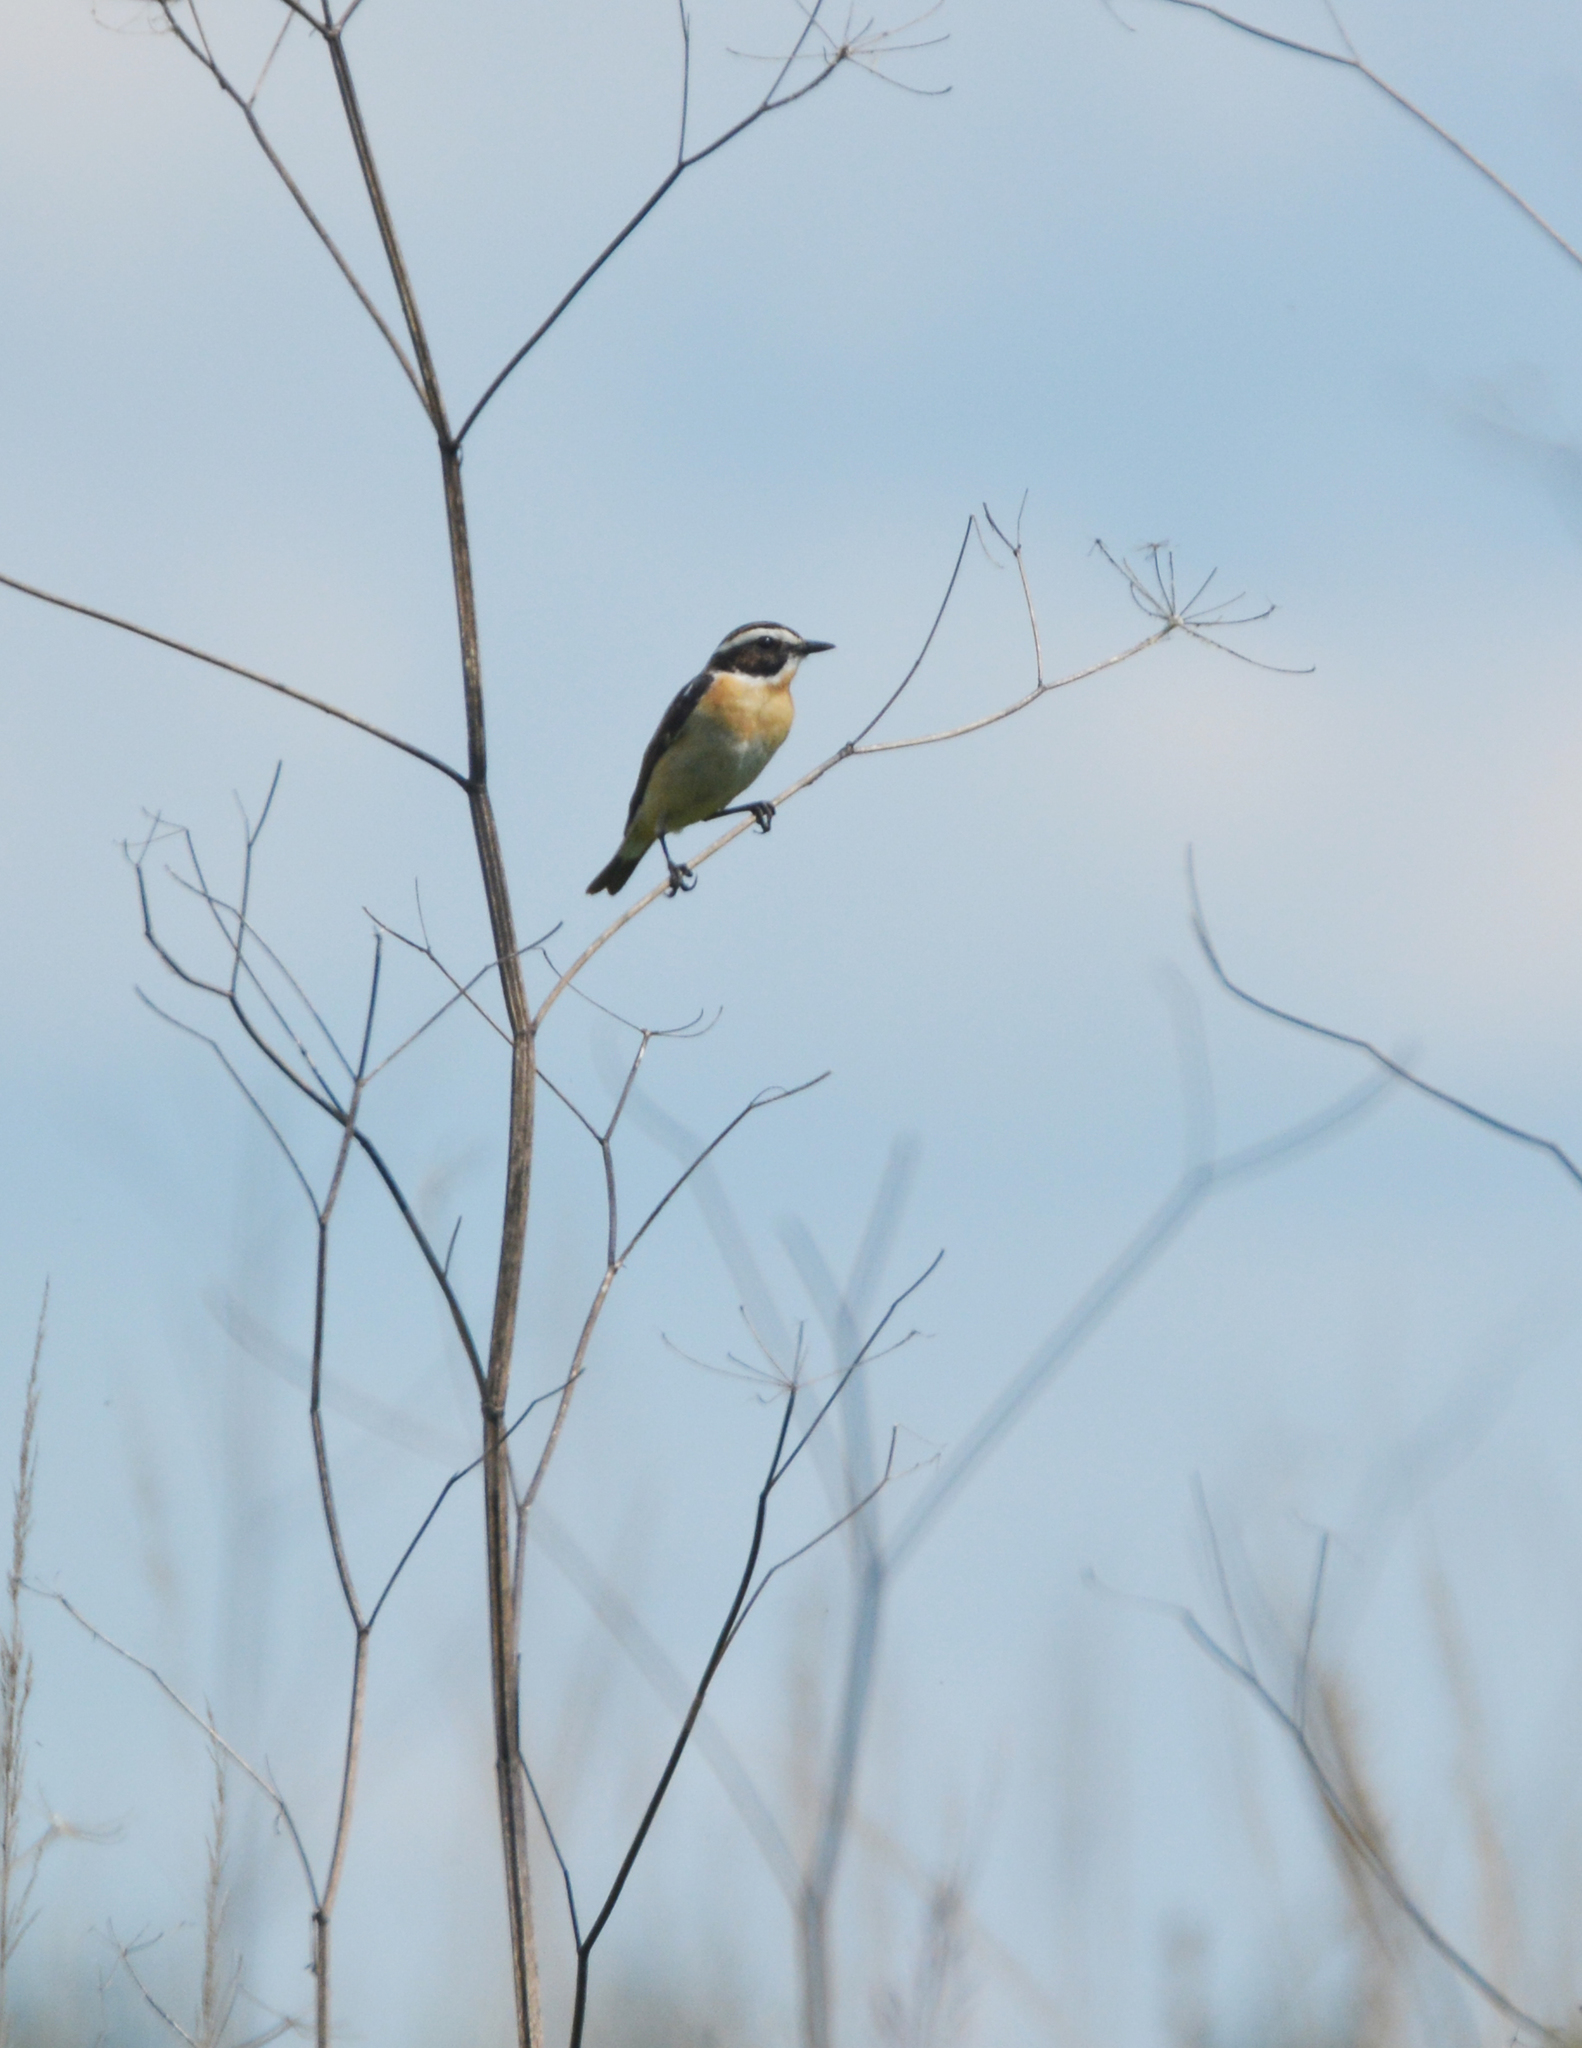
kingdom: Animalia
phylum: Chordata
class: Aves
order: Passeriformes
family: Muscicapidae
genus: Saxicola
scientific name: Saxicola rubetra
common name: Whinchat
